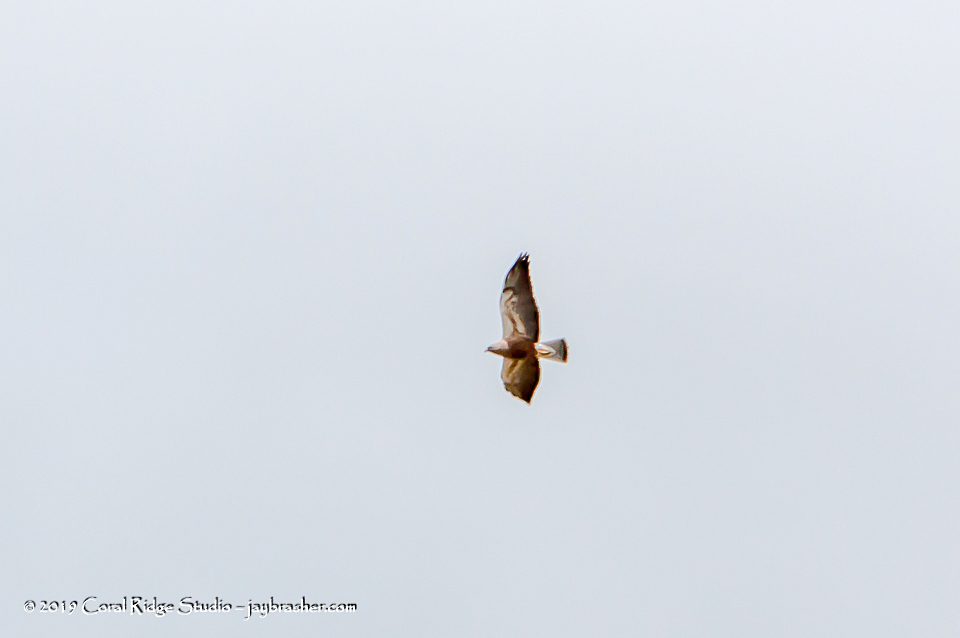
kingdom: Animalia
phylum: Chordata
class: Aves
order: Accipitriformes
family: Accipitridae
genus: Buteo
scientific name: Buteo swainsoni
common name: Swainson's hawk
